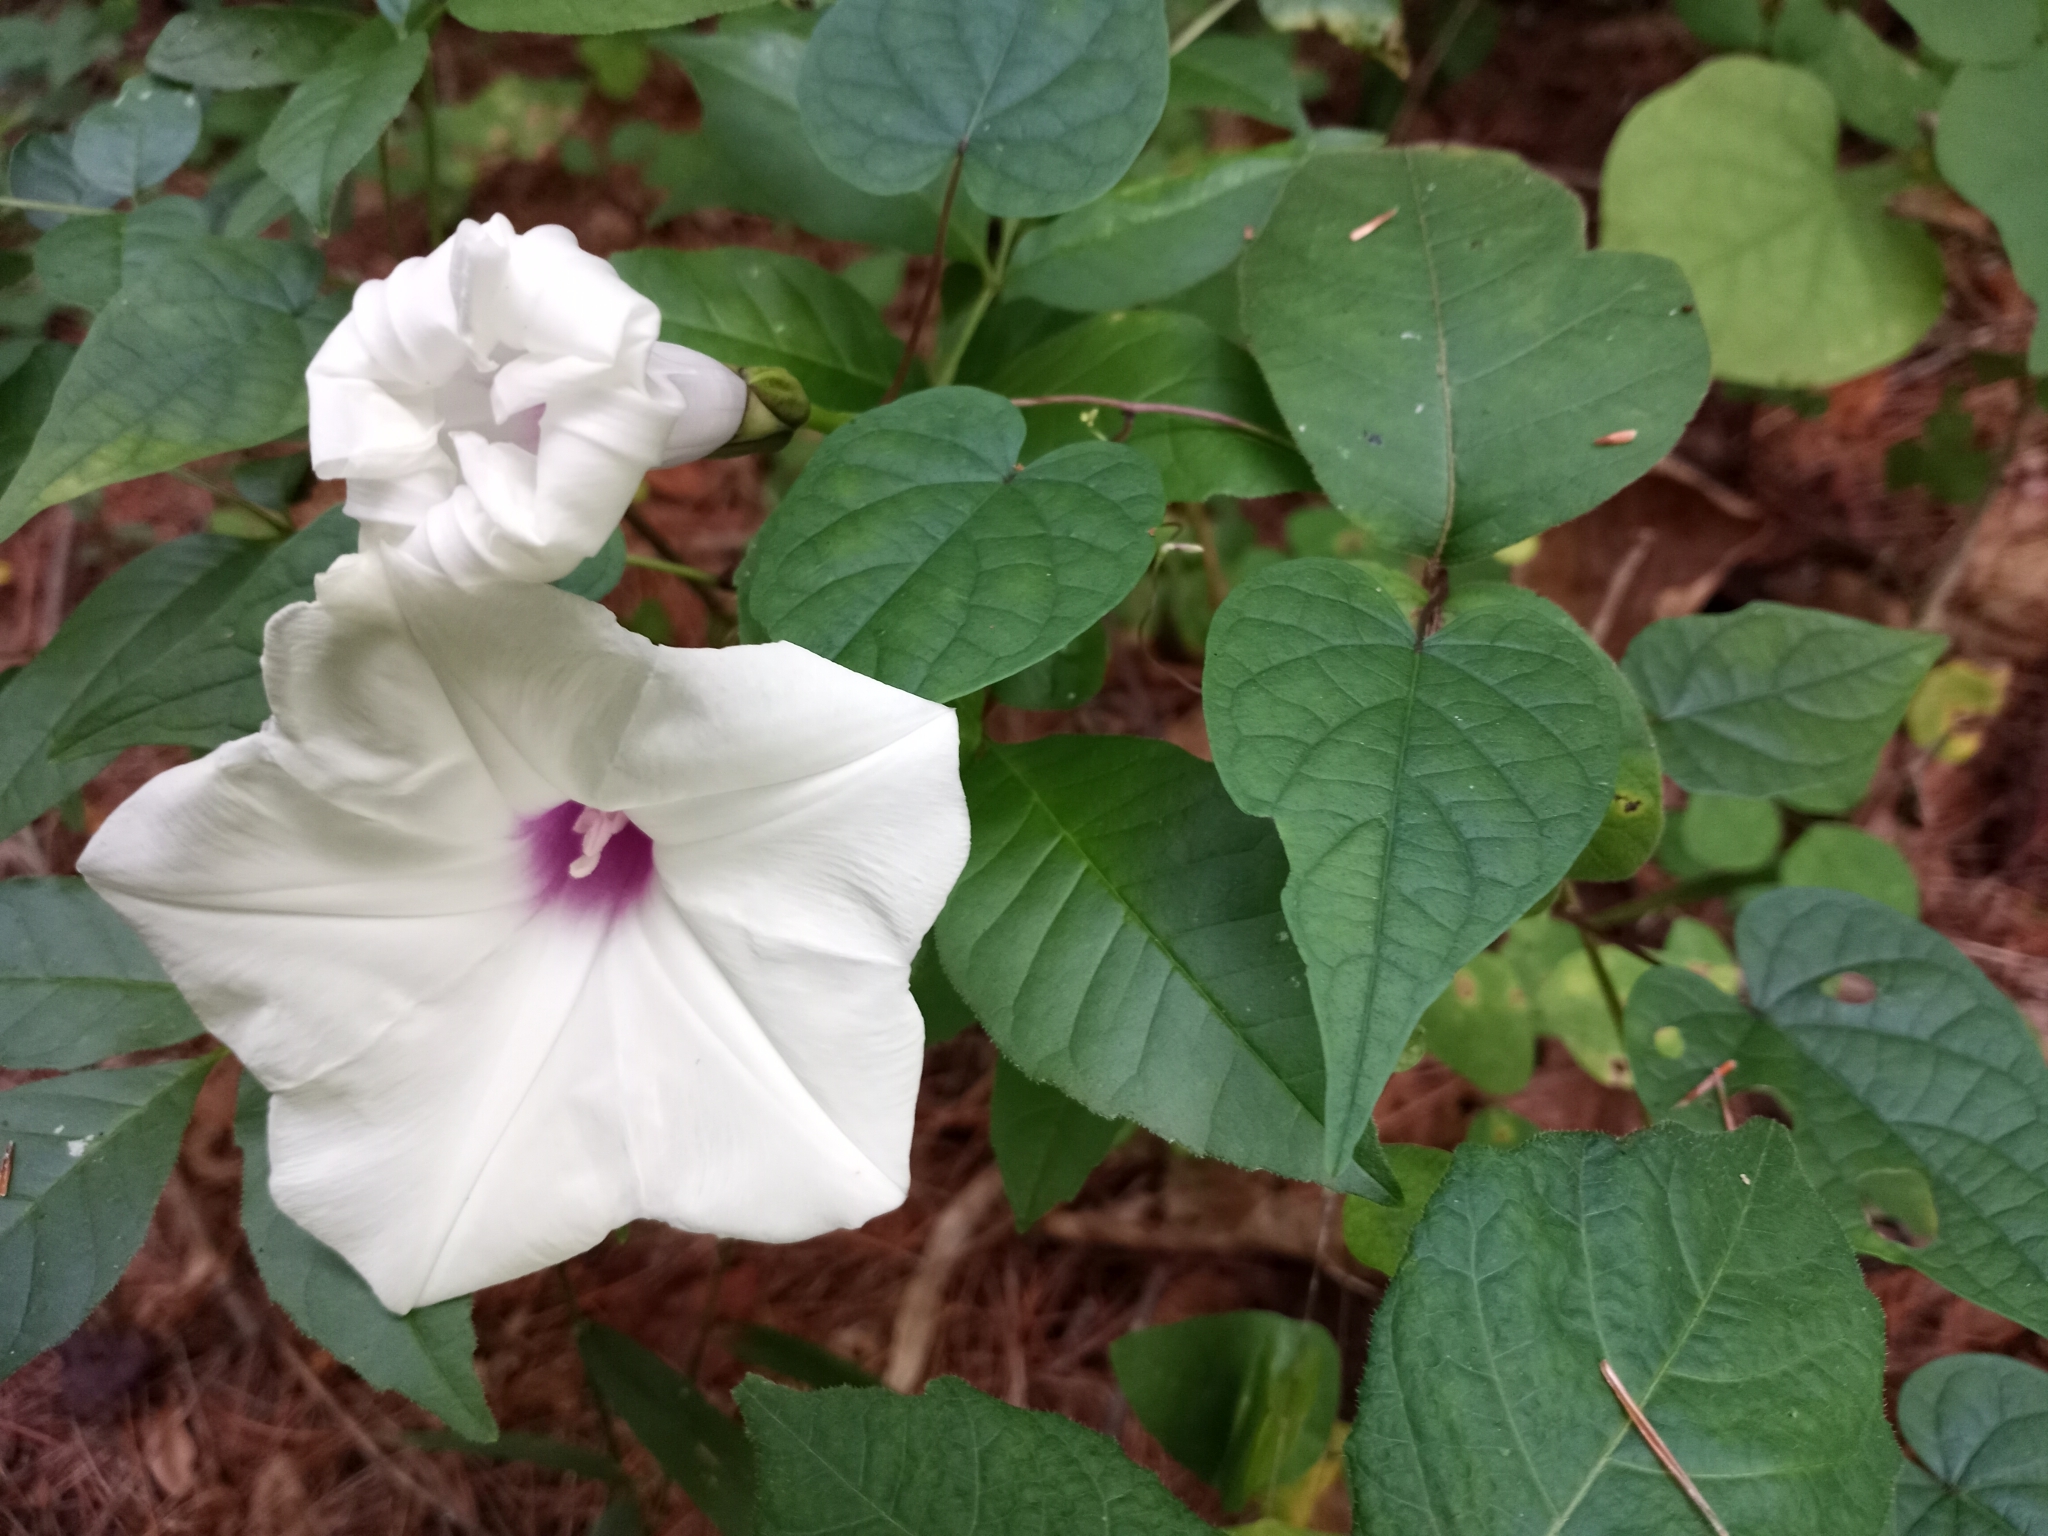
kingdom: Plantae
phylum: Tracheophyta
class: Magnoliopsida
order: Solanales
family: Convolvulaceae
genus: Ipomoea
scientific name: Ipomoea pandurata
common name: Man-of-the-earth
